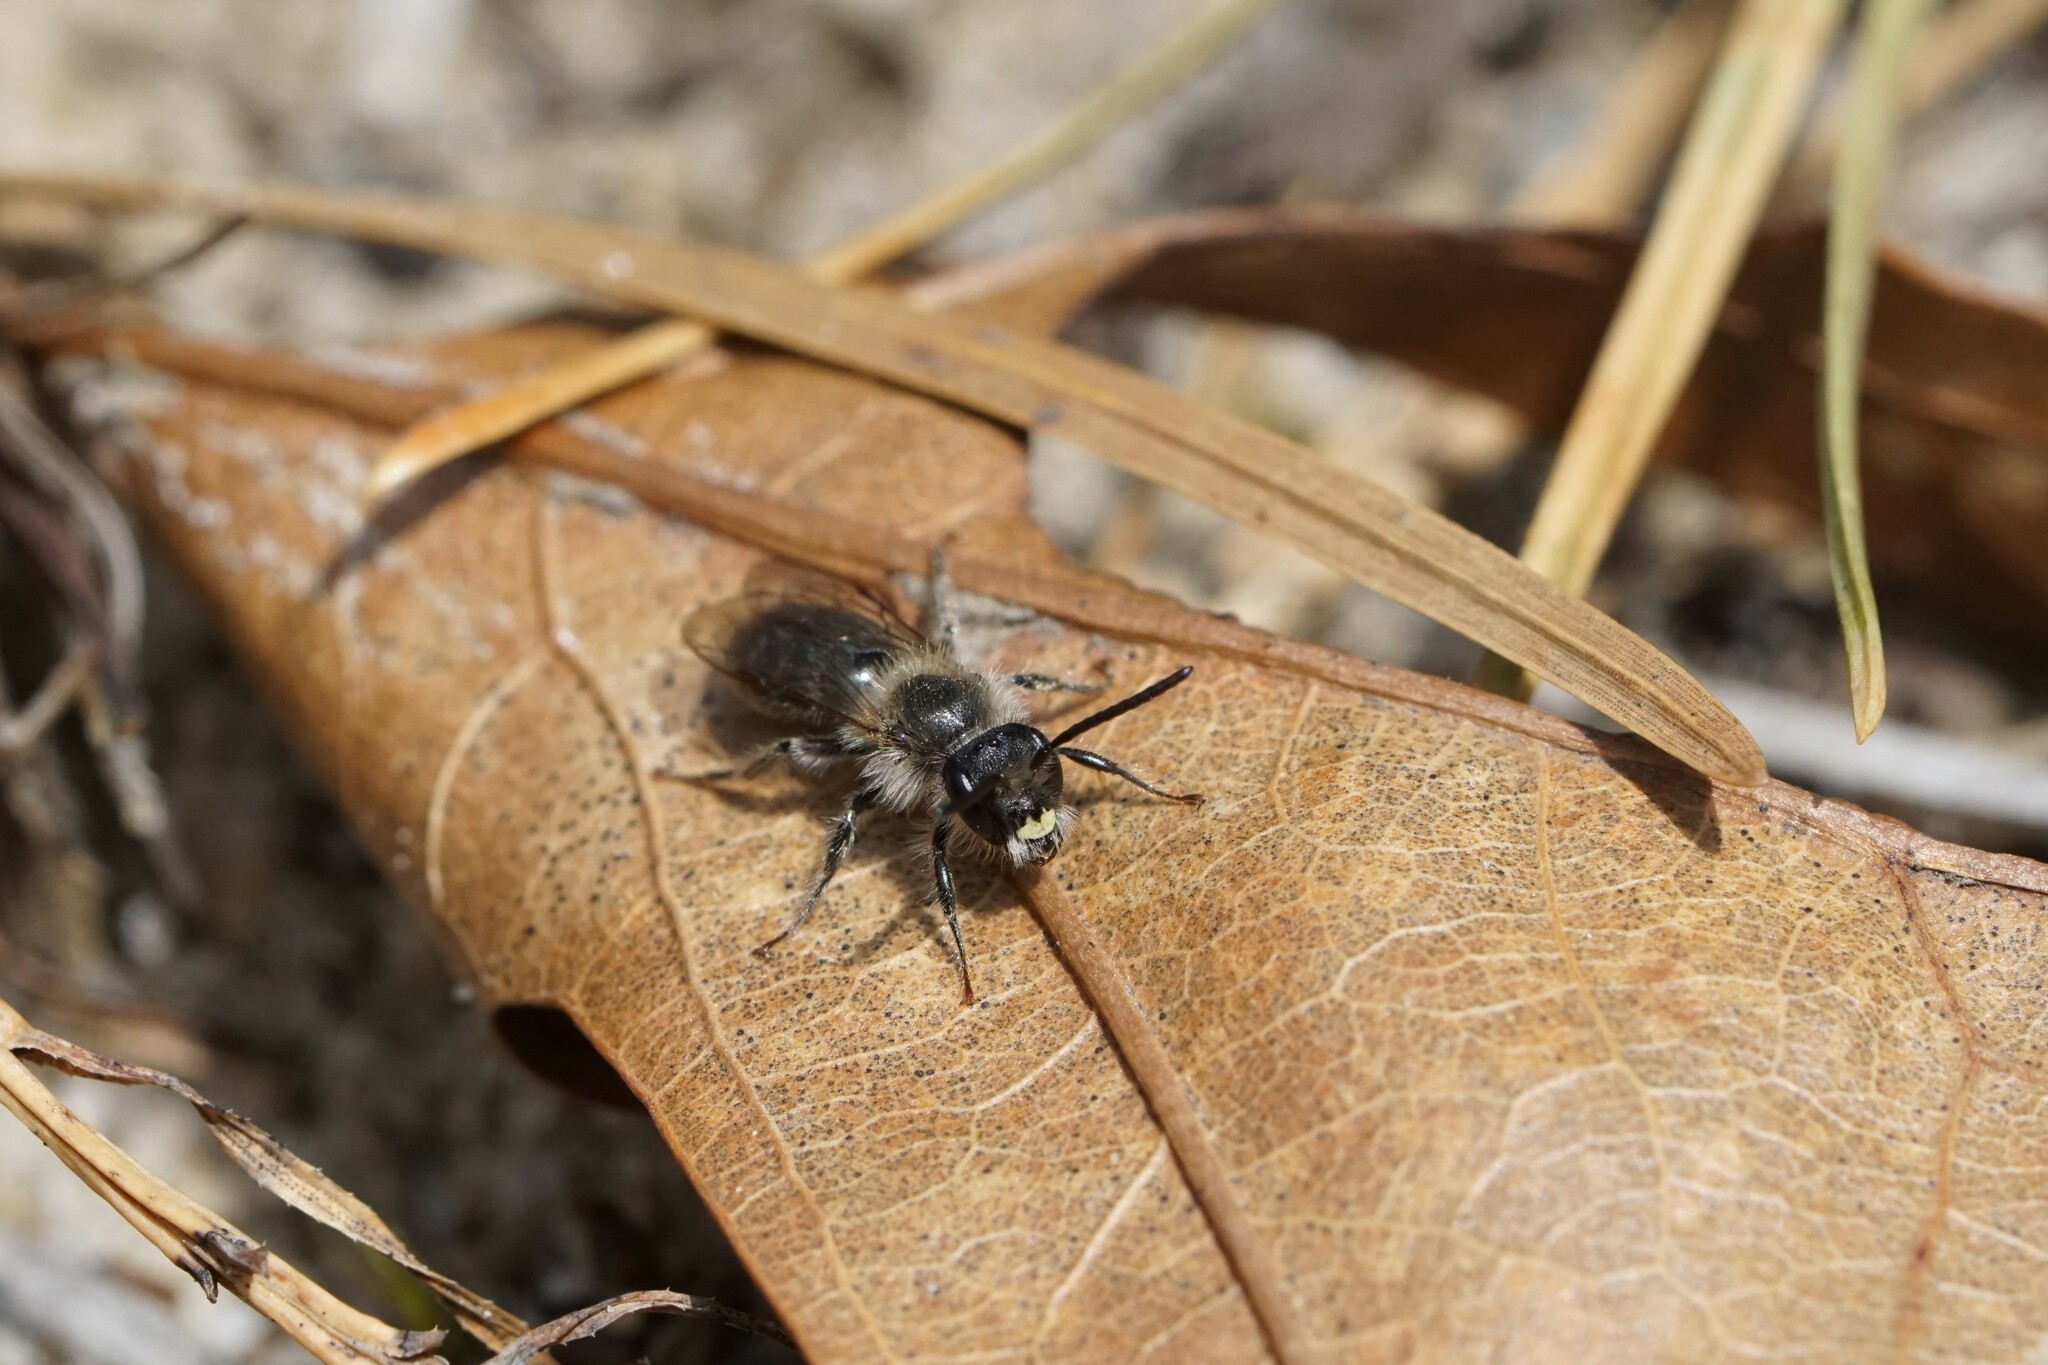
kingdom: Animalia
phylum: Arthropoda
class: Insecta
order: Hymenoptera
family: Andrenidae
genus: Andrena
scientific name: Andrena bradleyi
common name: Bradley's mining bee
